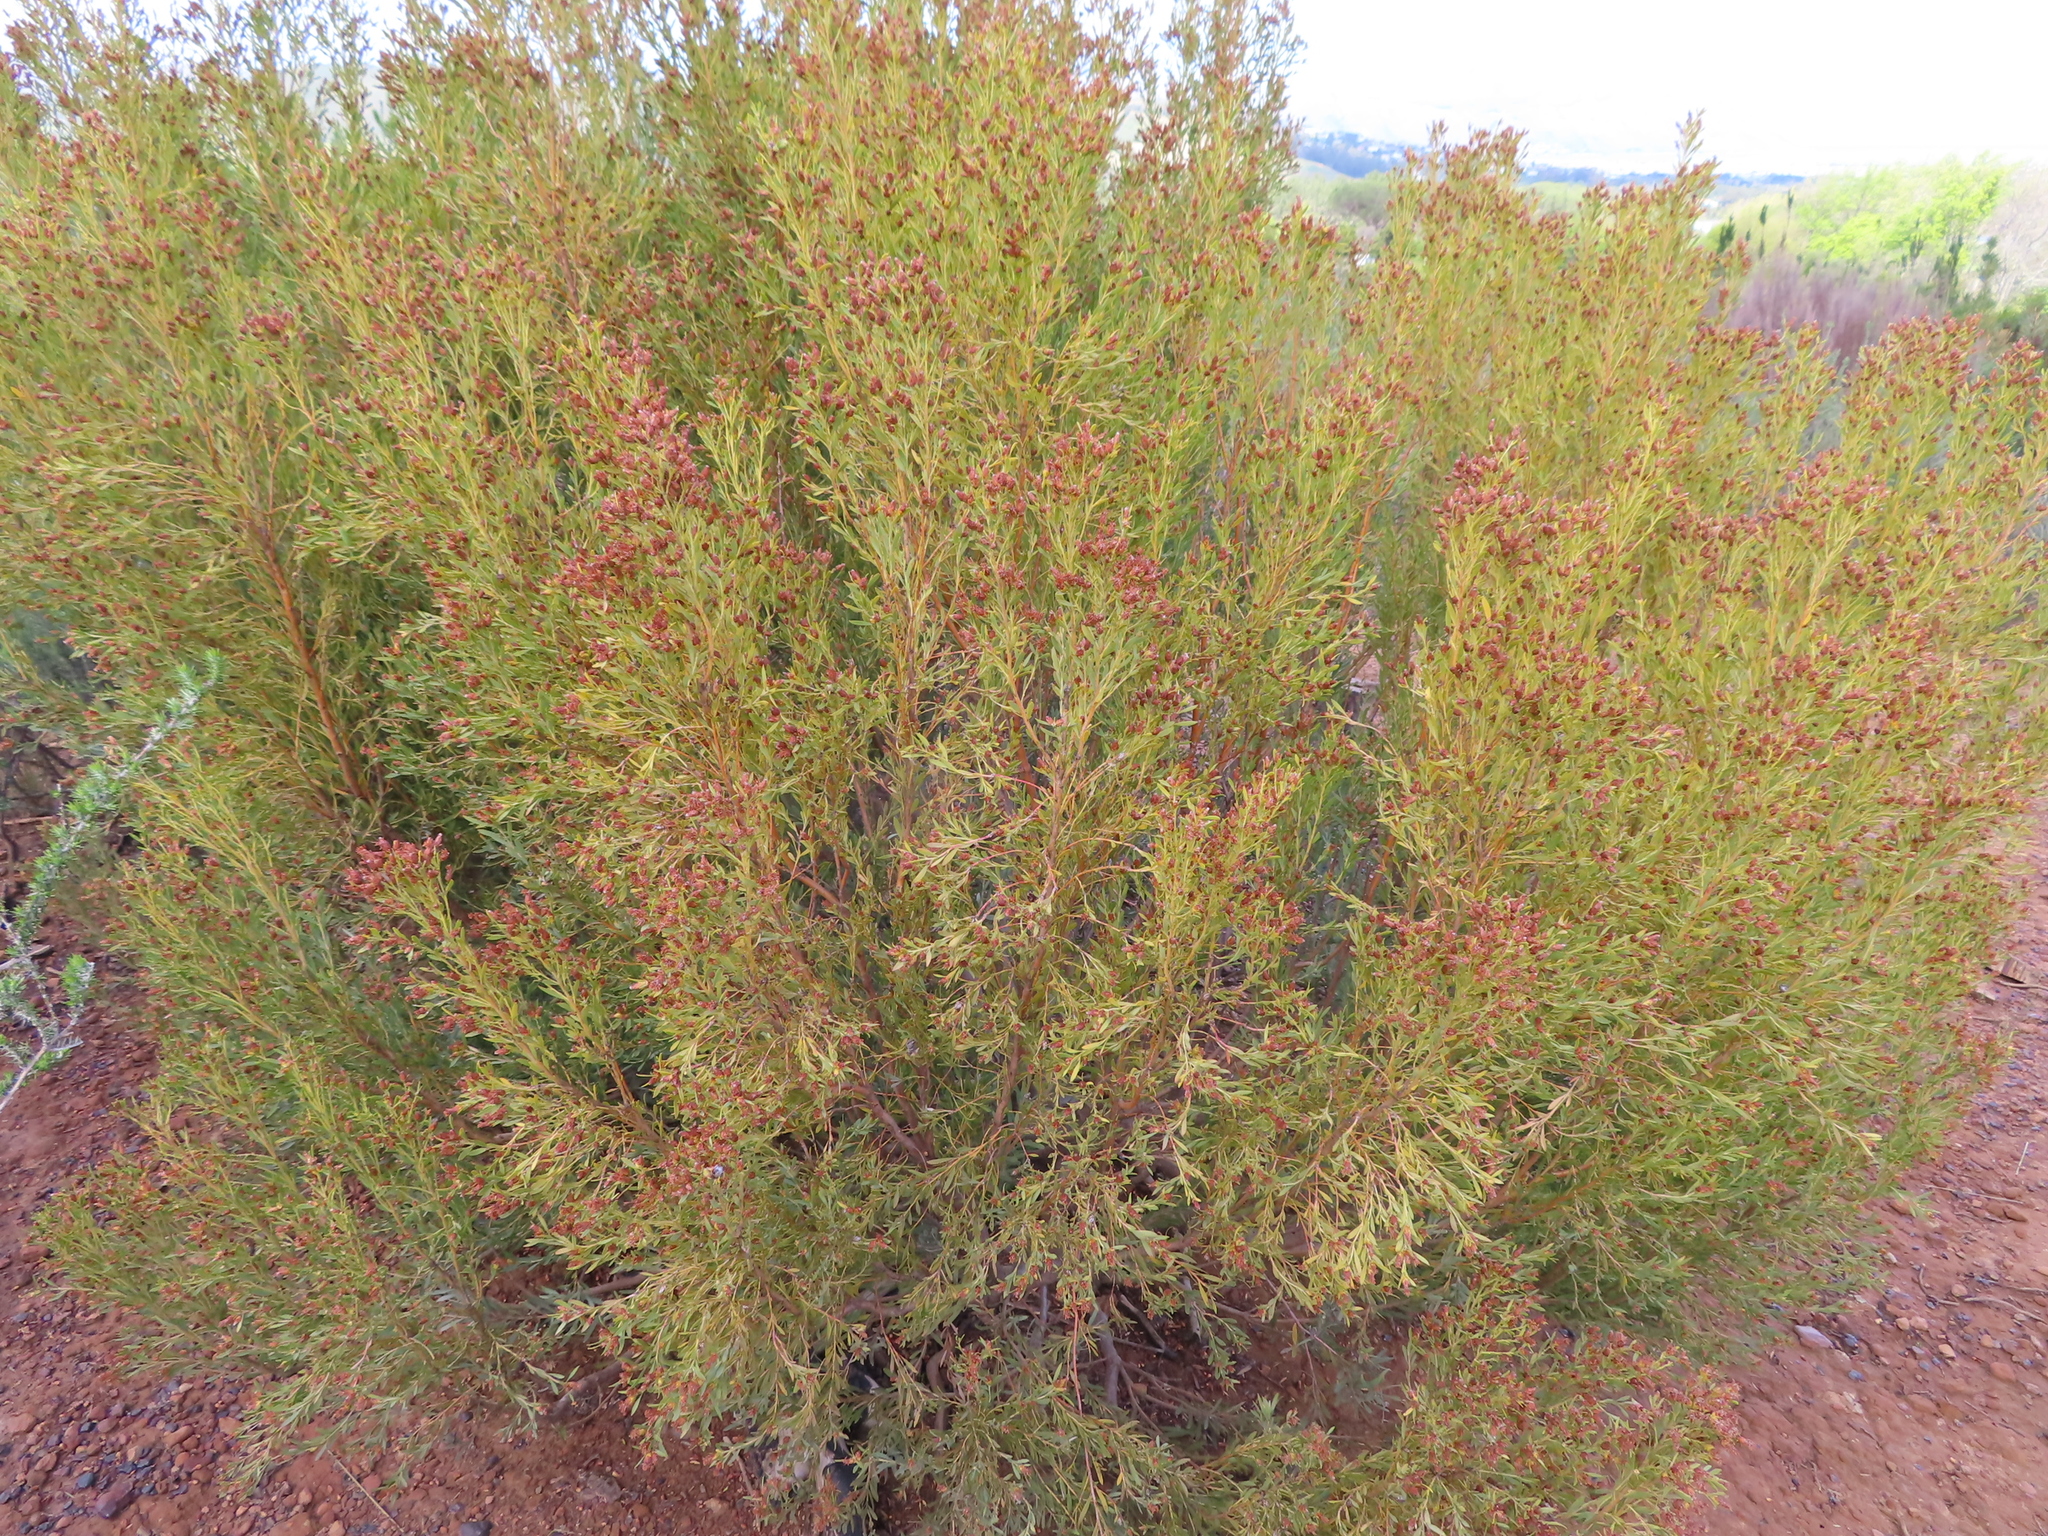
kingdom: Plantae
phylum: Tracheophyta
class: Magnoliopsida
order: Proteales
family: Proteaceae
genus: Leucadendron
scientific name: Leucadendron rubrum
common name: Spinning top
